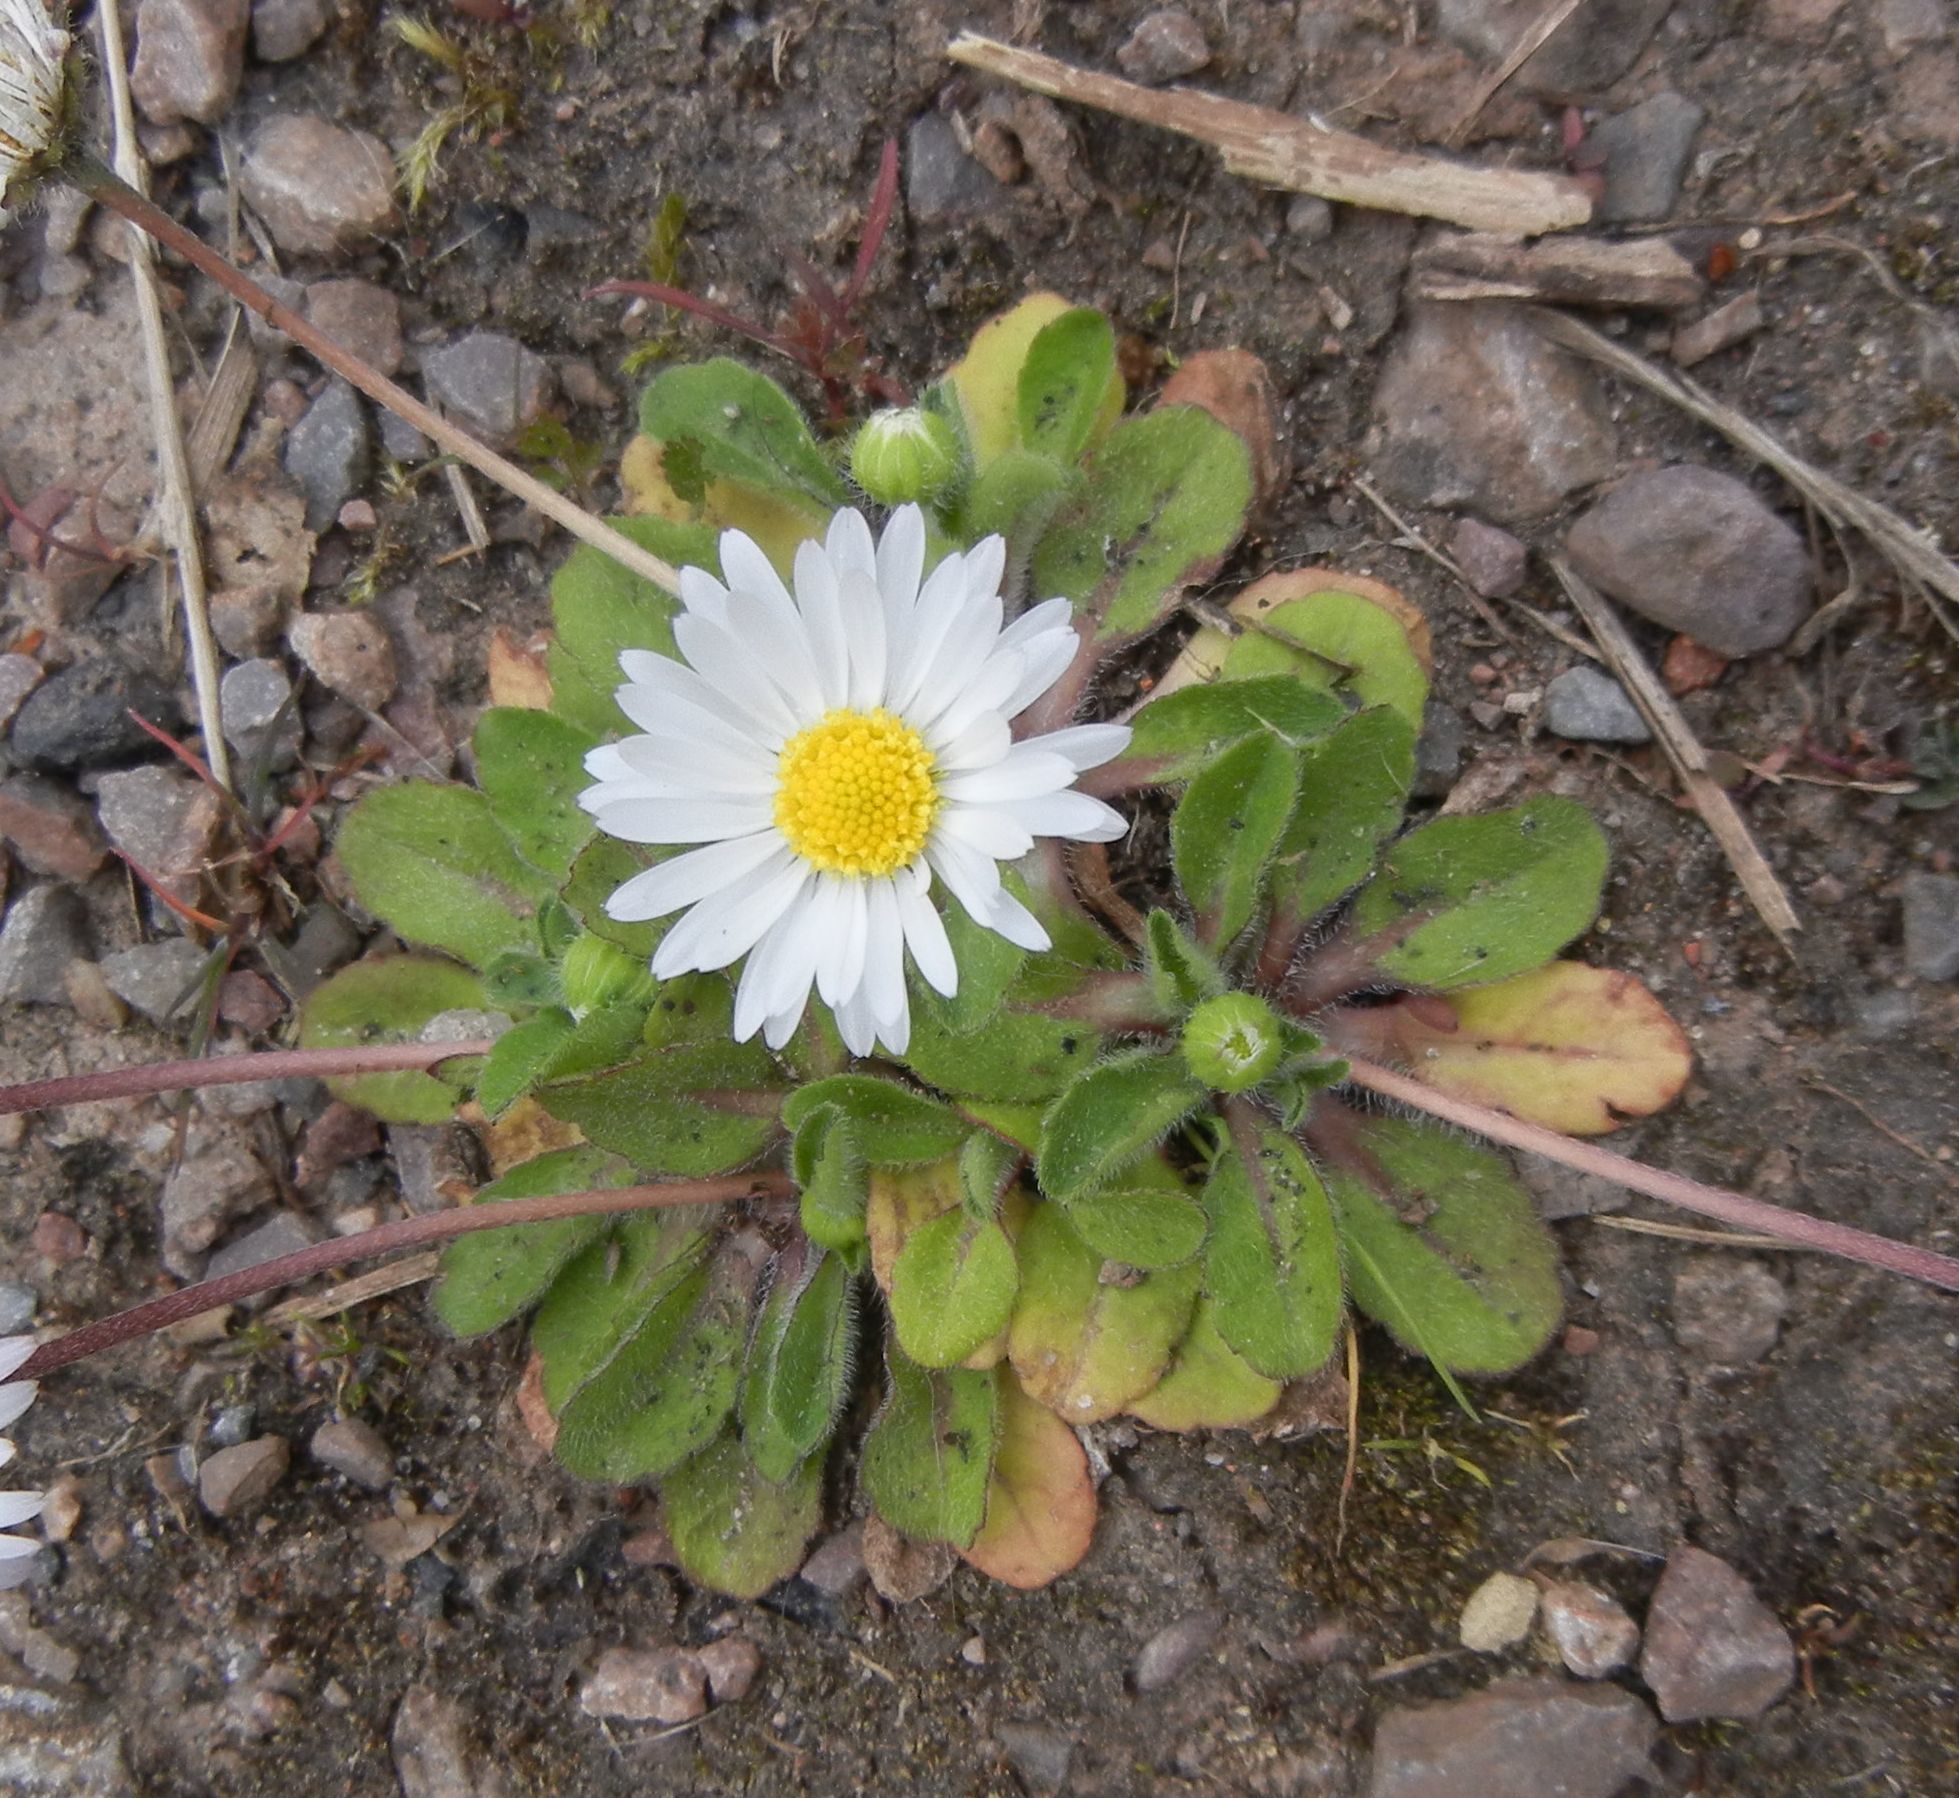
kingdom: Plantae
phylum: Tracheophyta
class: Magnoliopsida
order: Asterales
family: Asteraceae
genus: Bellis
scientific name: Bellis perennis
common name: Lawndaisy
